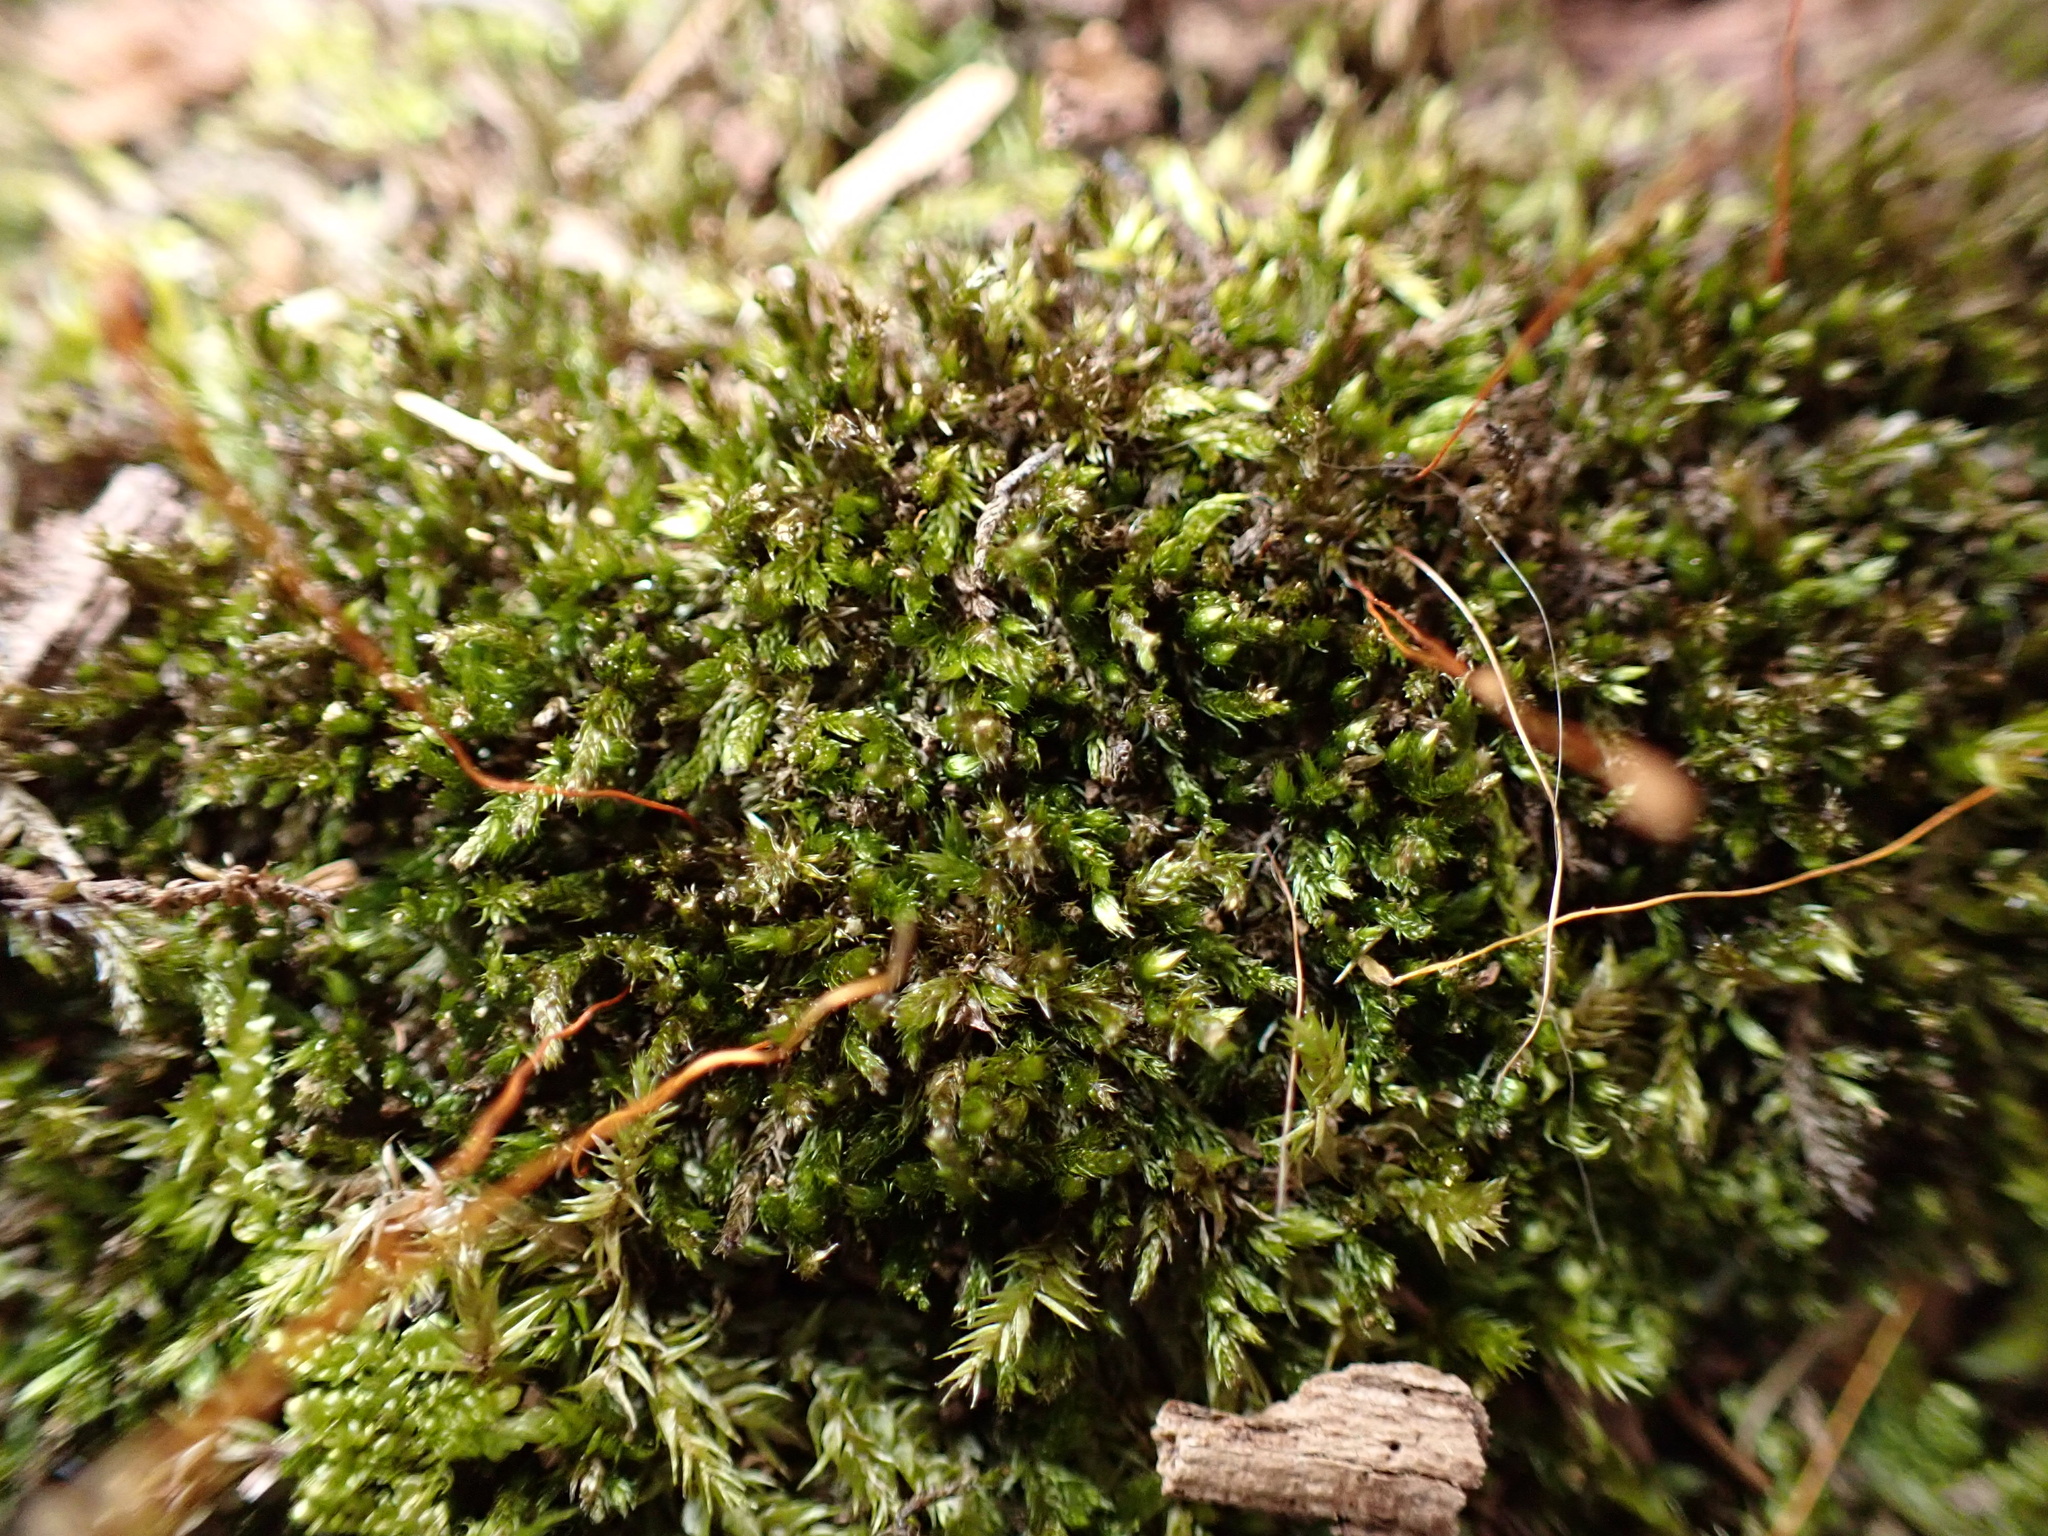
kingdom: Plantae
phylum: Bryophyta
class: Bryopsida
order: Hypnales
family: Pylaisiadelphaceae
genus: Platygyrium
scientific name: Platygyrium repens
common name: Flat-brocade moss
